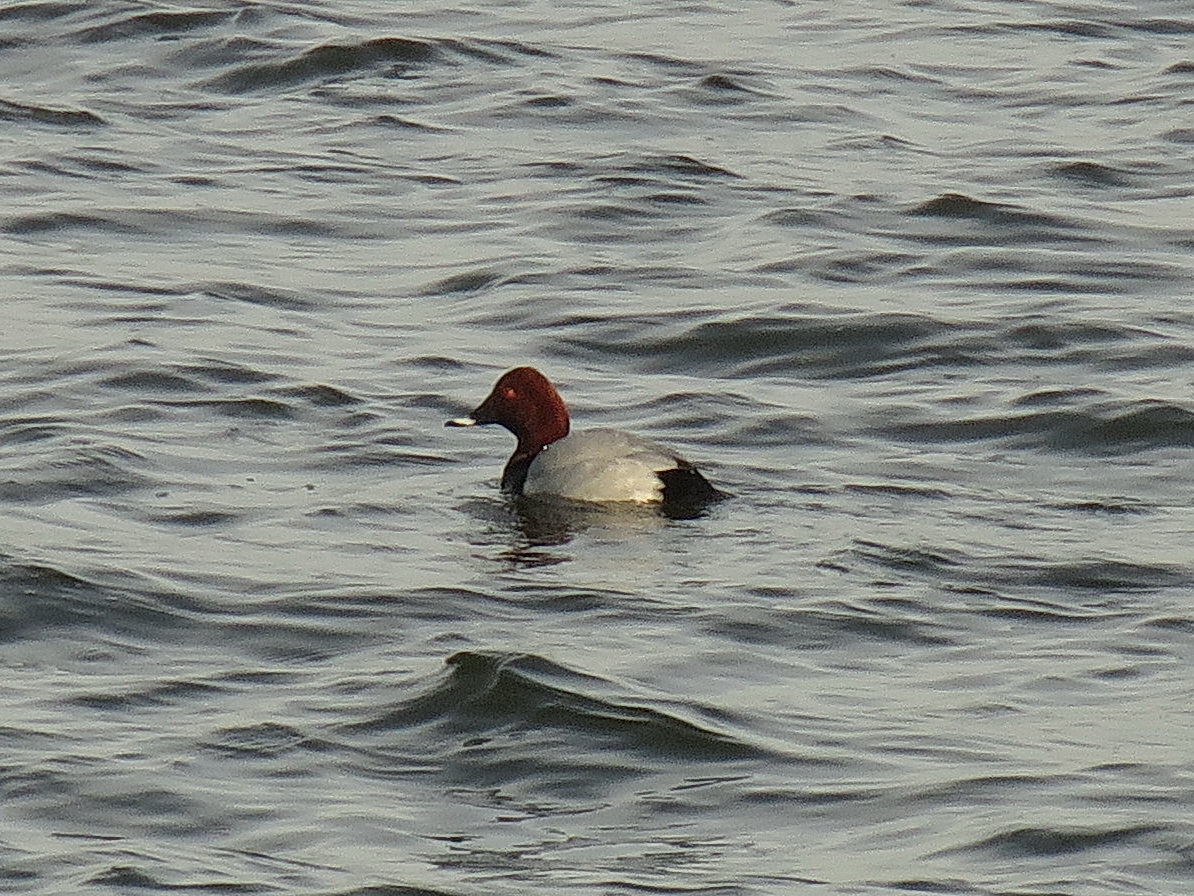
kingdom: Animalia
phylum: Chordata
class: Aves
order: Anseriformes
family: Anatidae
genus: Aythya
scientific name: Aythya ferina
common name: Common pochard
